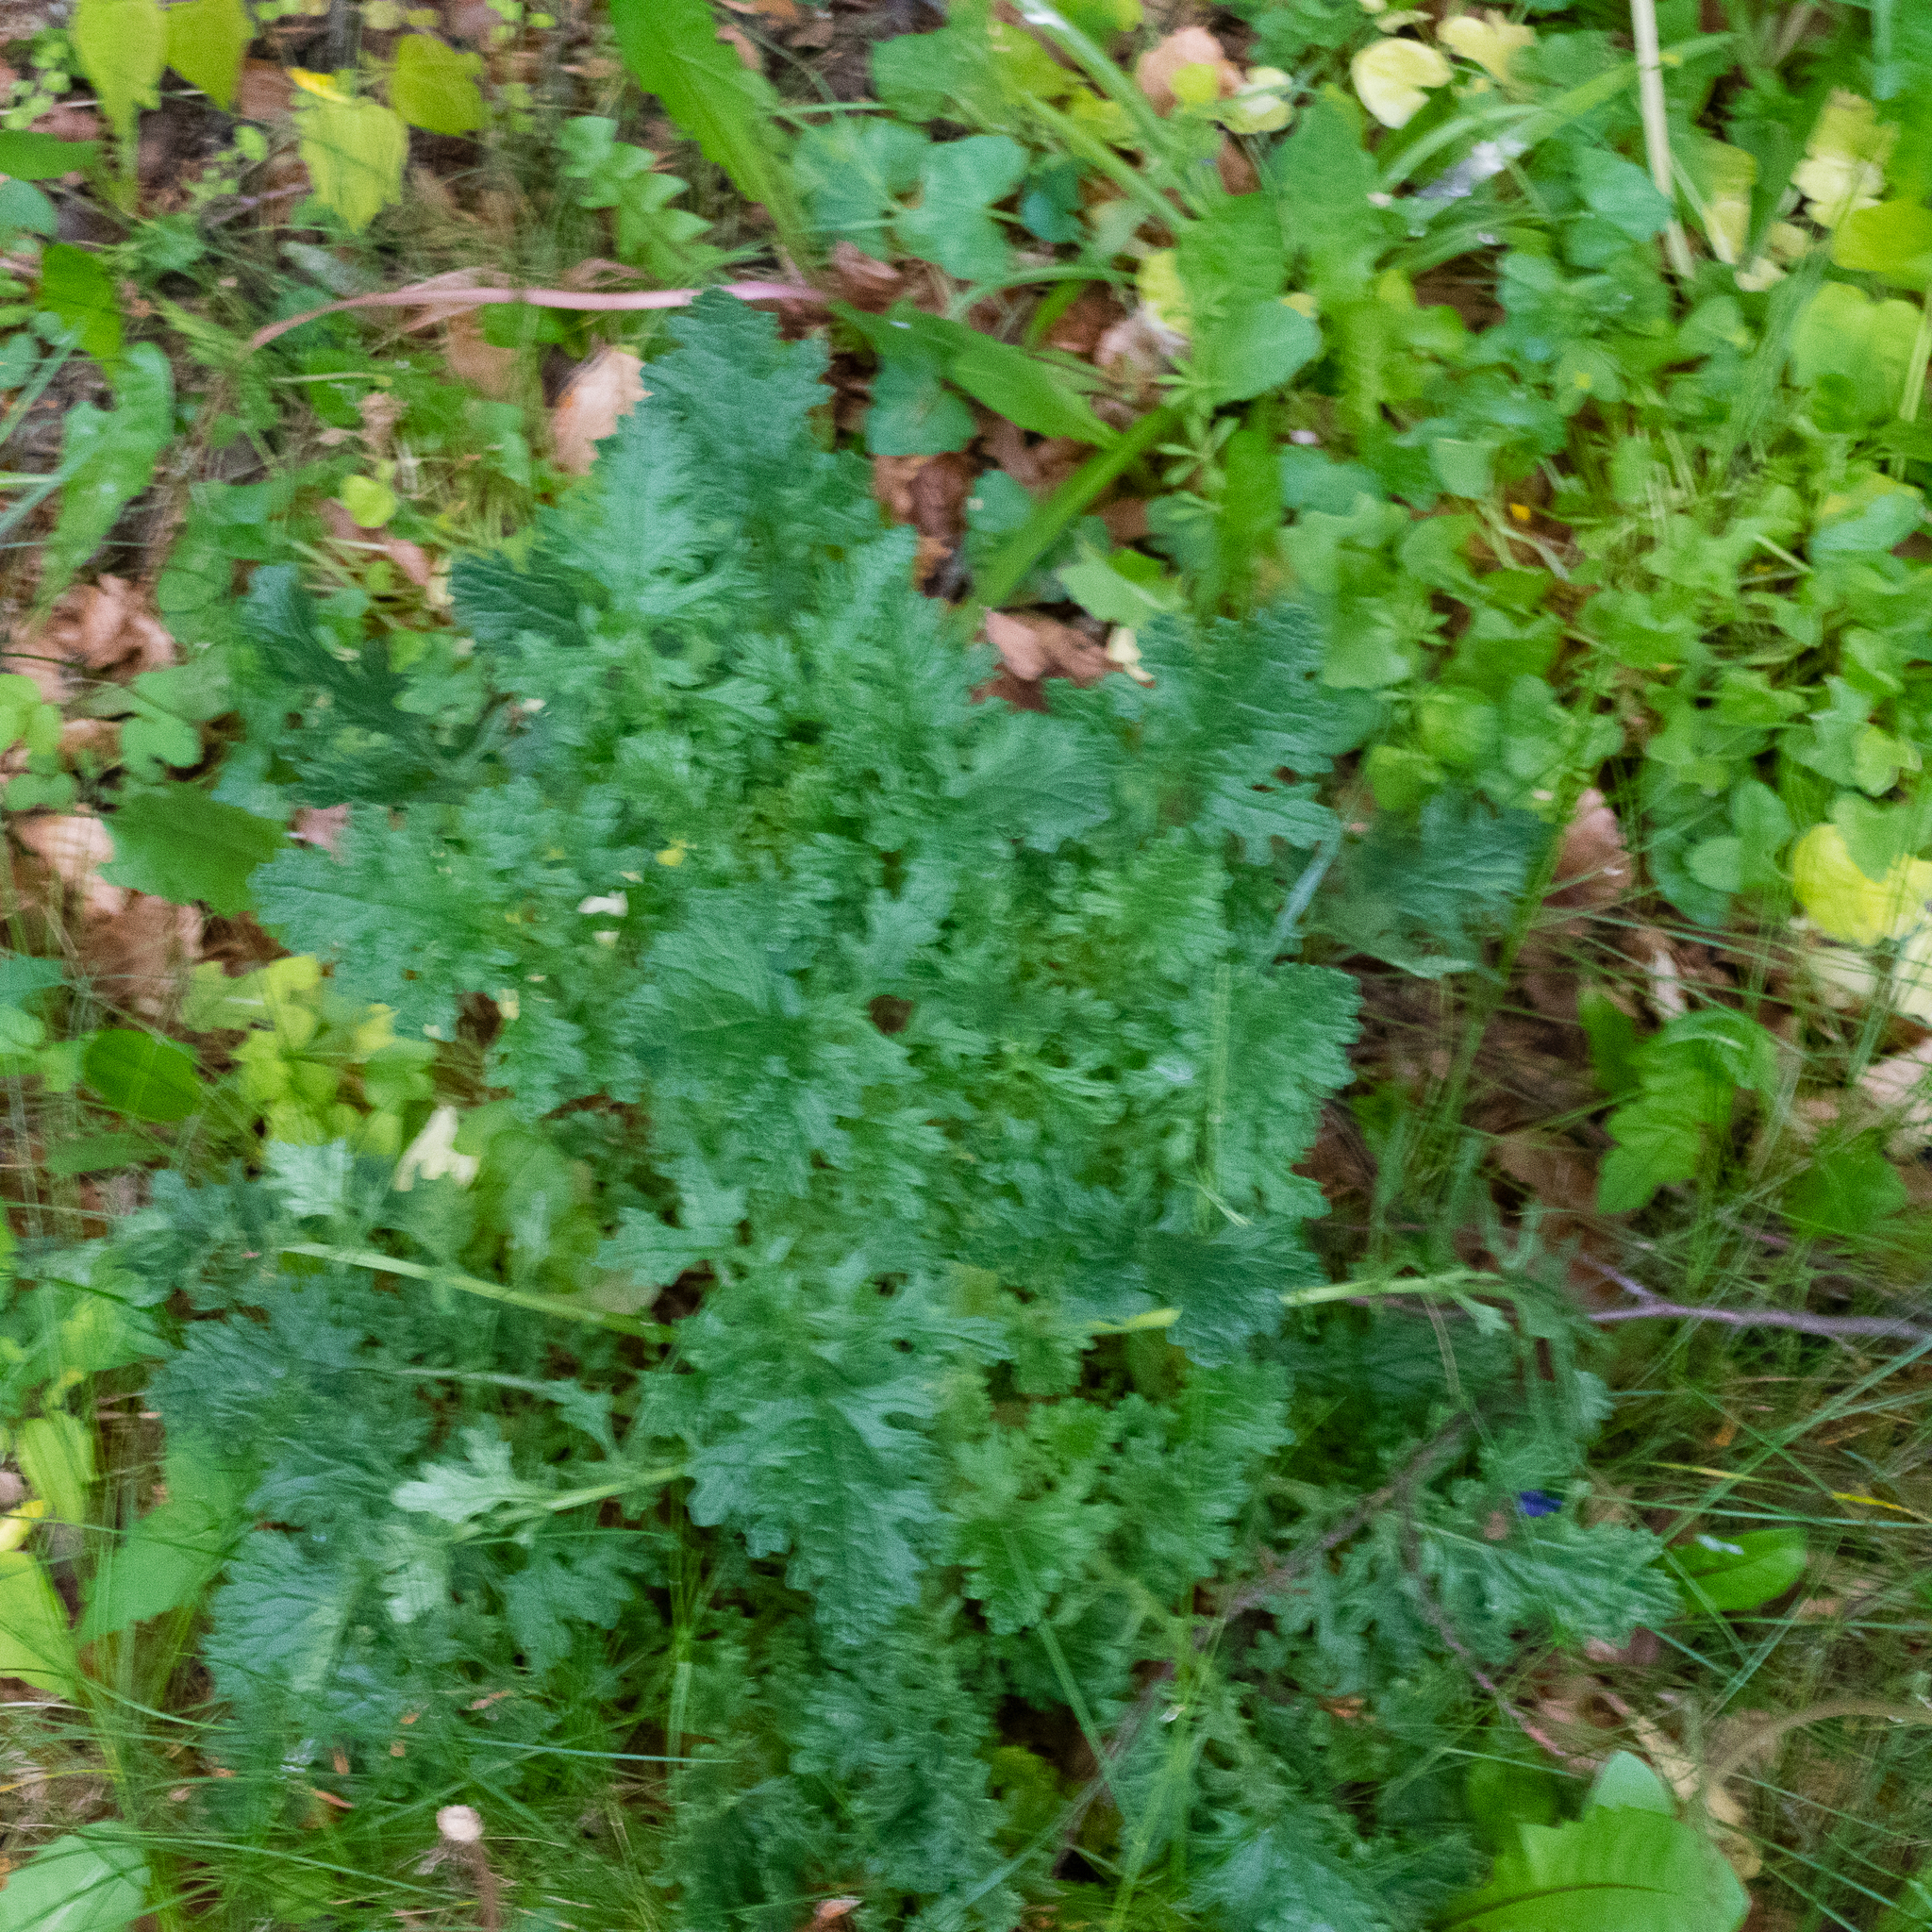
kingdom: Plantae
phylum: Tracheophyta
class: Magnoliopsida
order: Asterales
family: Asteraceae
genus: Jacobaea
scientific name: Jacobaea vulgaris
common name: Stinking willie
